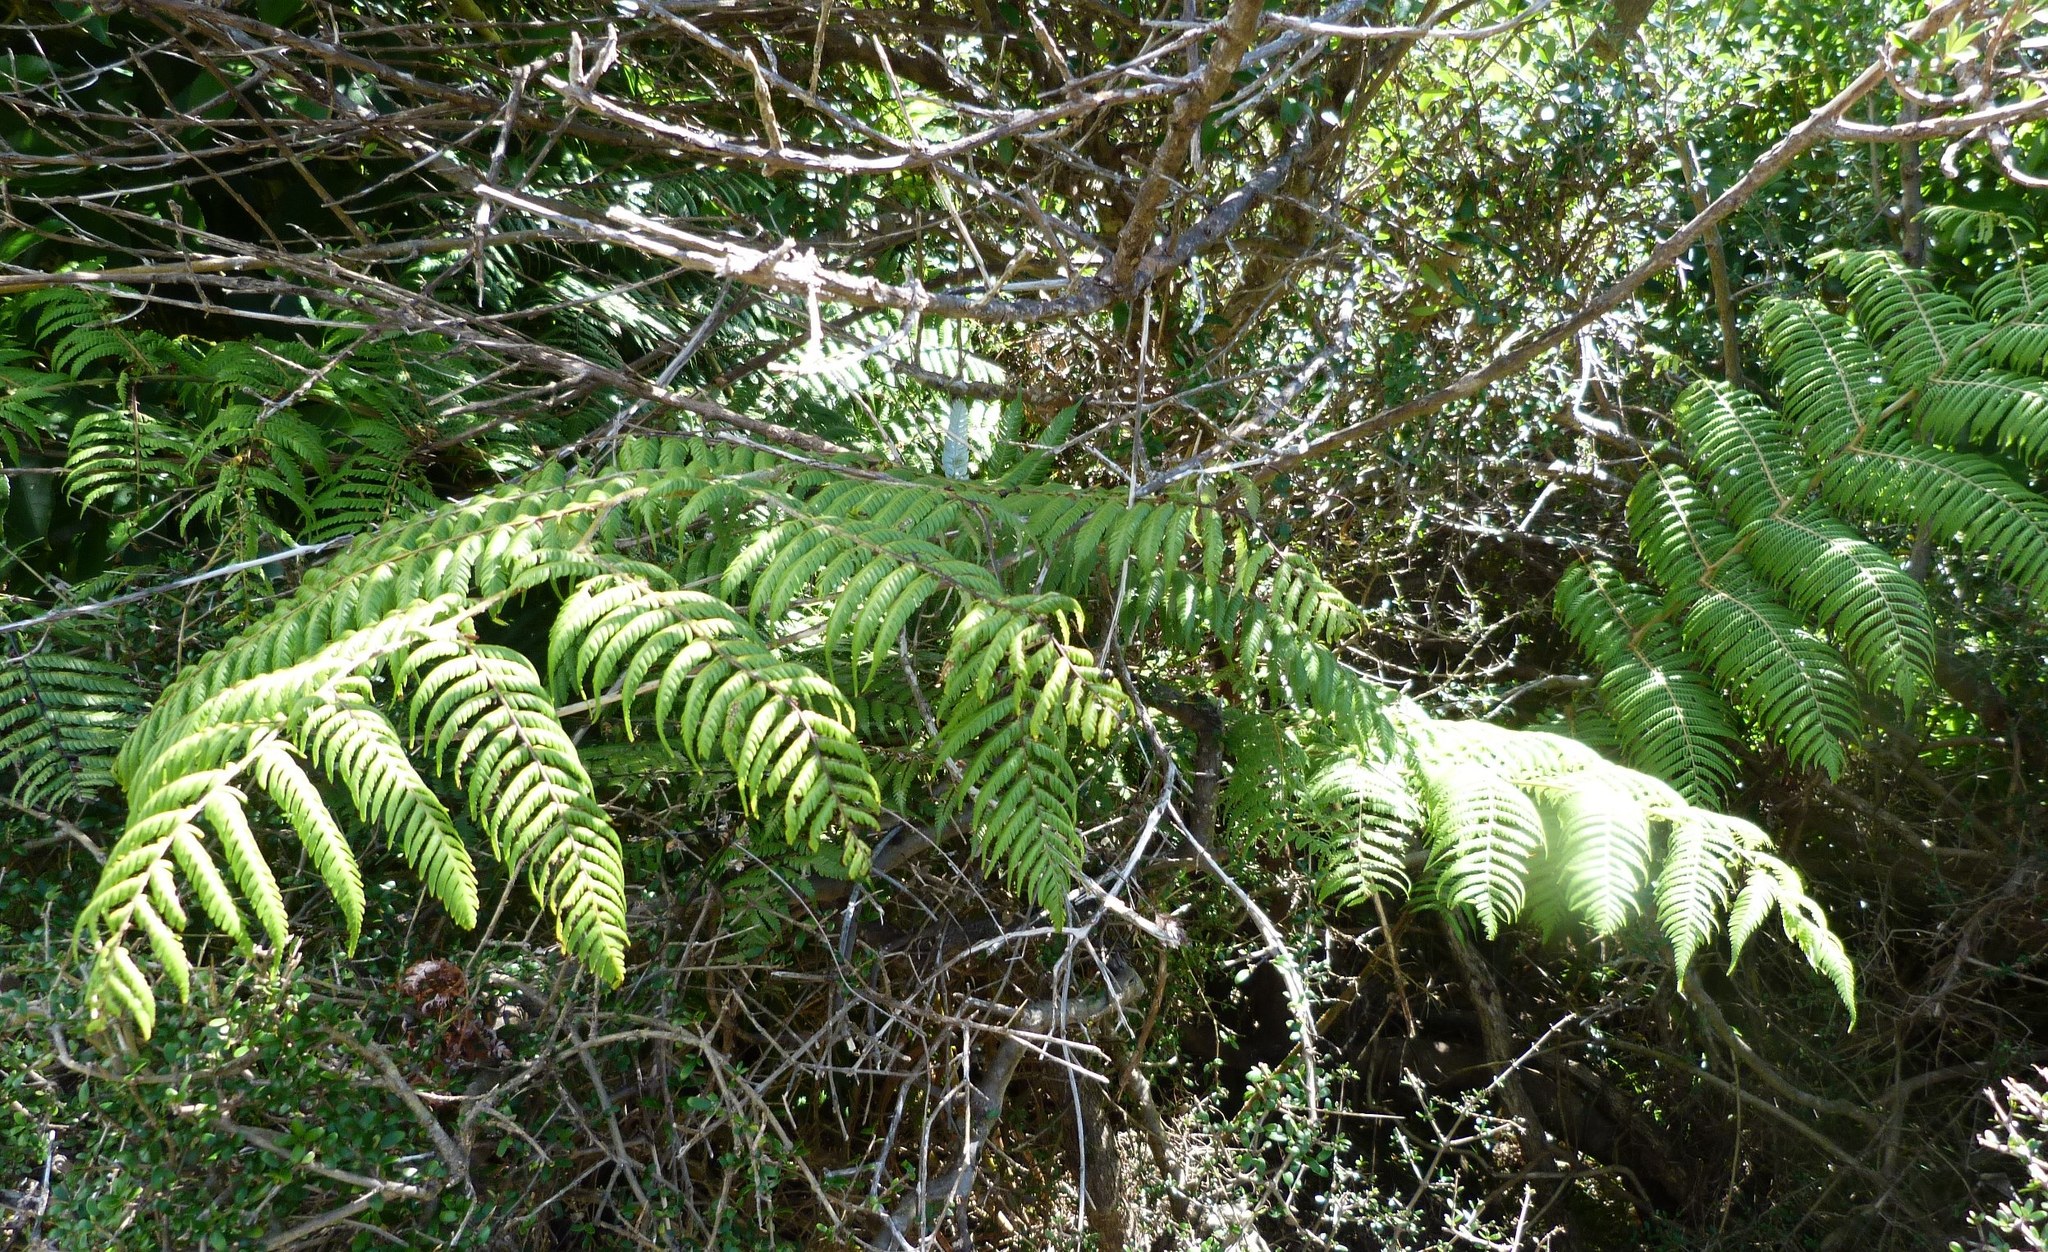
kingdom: Plantae
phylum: Tracheophyta
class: Polypodiopsida
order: Cyatheales
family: Cyatheaceae
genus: Alsophila
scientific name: Alsophila dealbata
